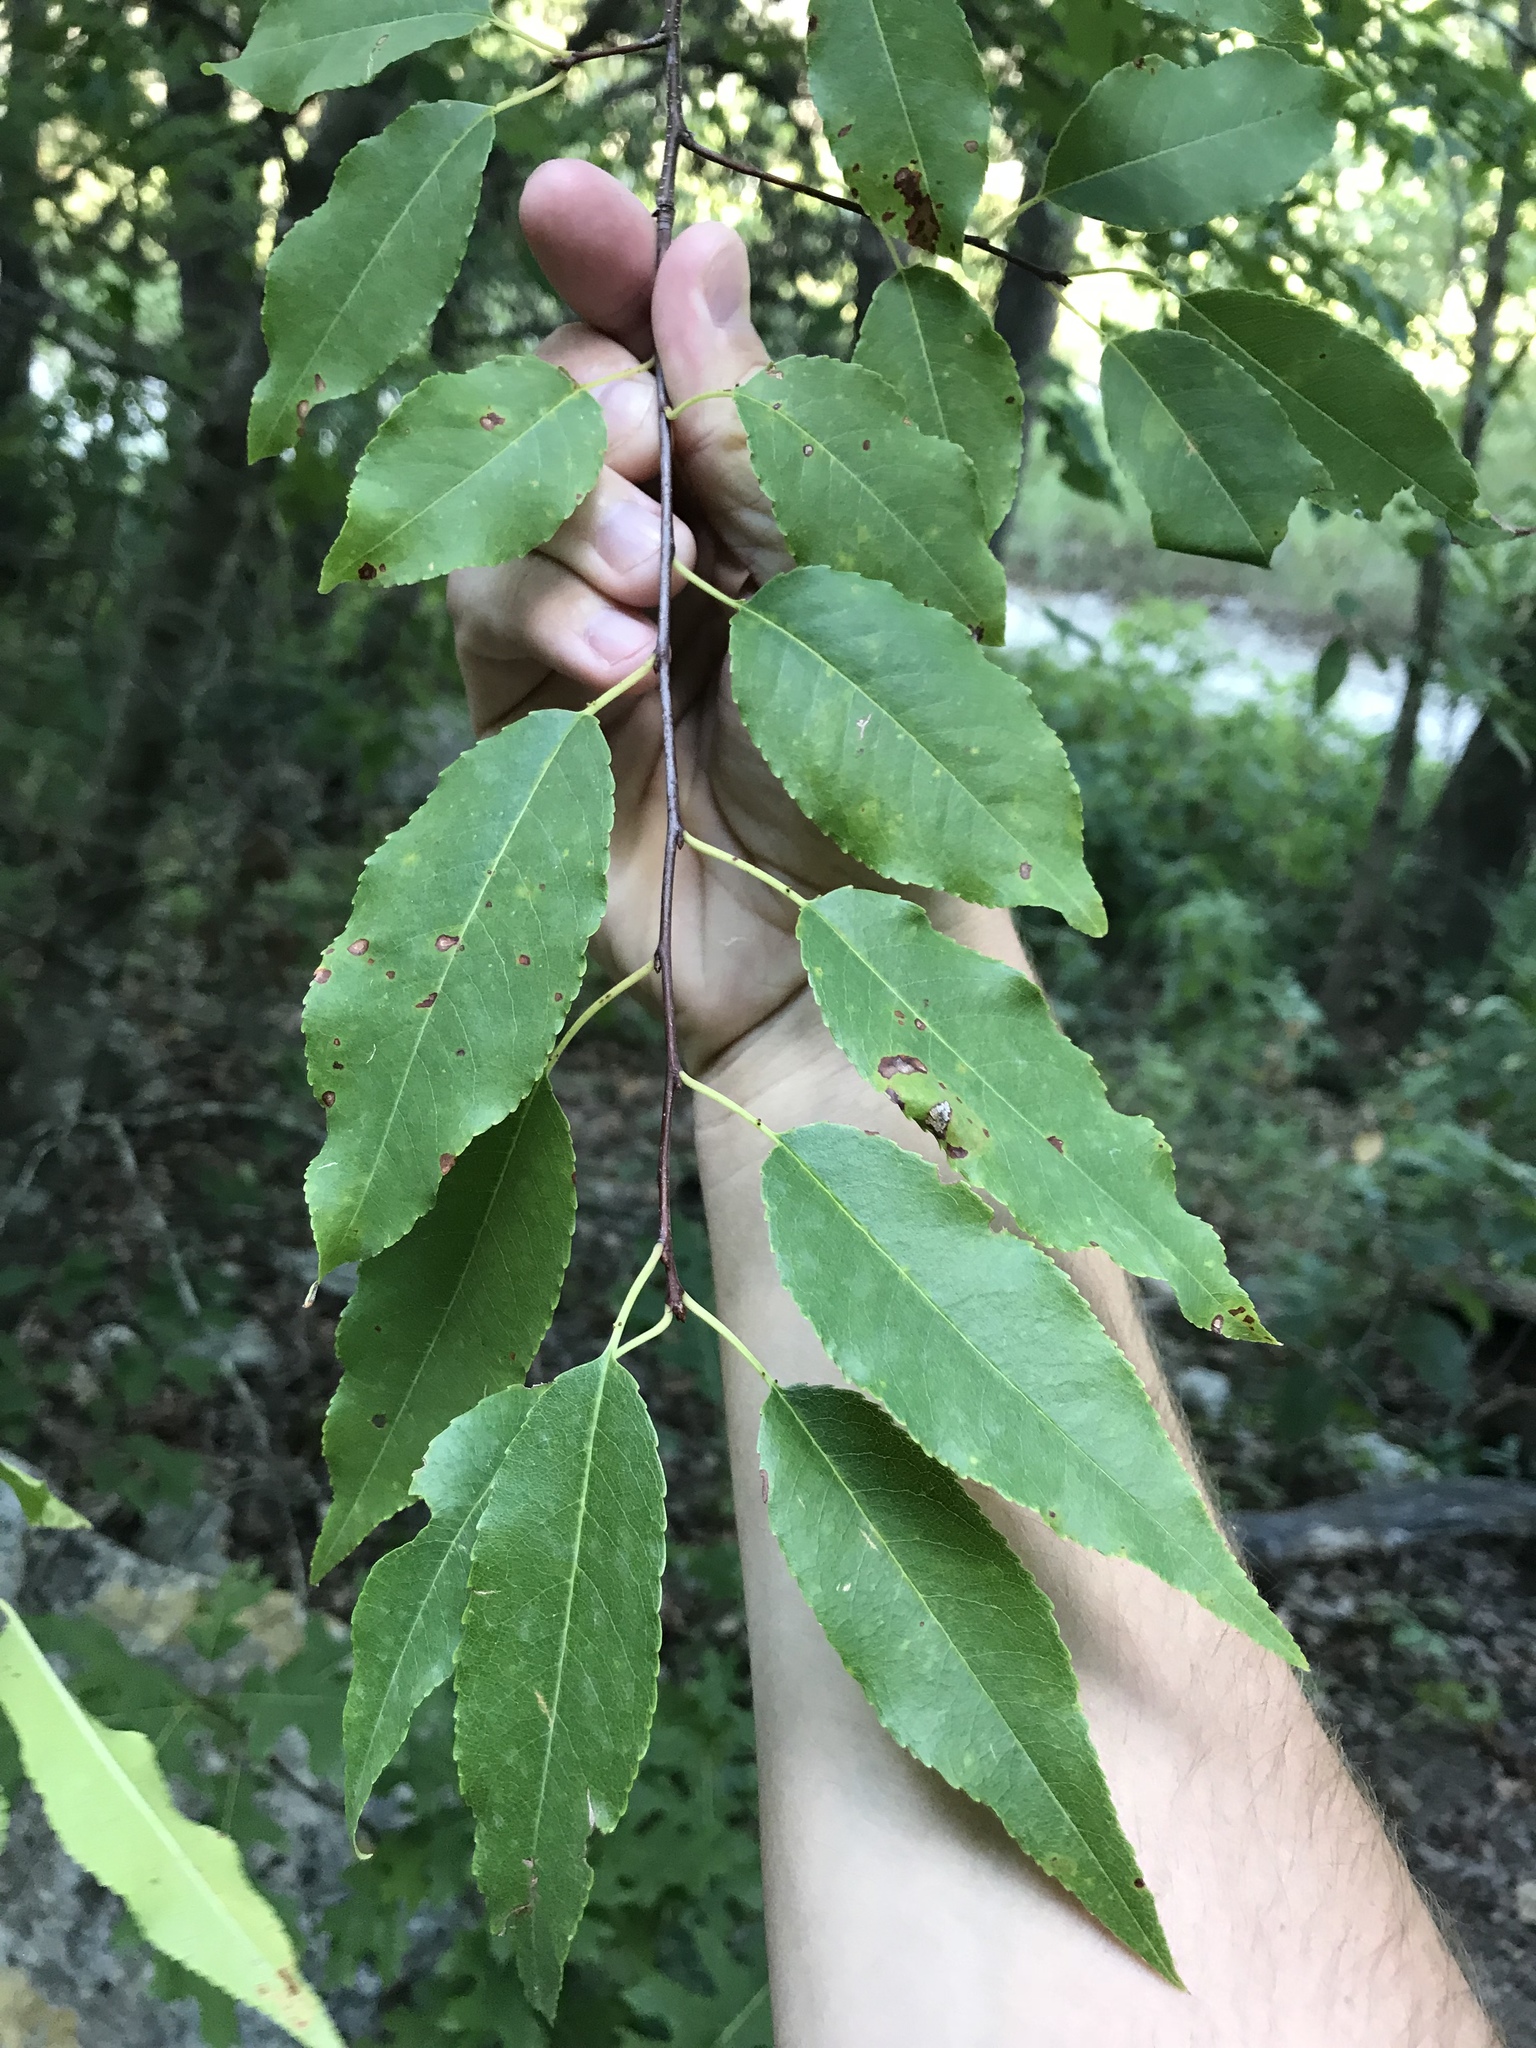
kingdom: Plantae
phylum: Tracheophyta
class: Magnoliopsida
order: Rosales
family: Rosaceae
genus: Prunus
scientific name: Prunus serotina
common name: Black cherry
